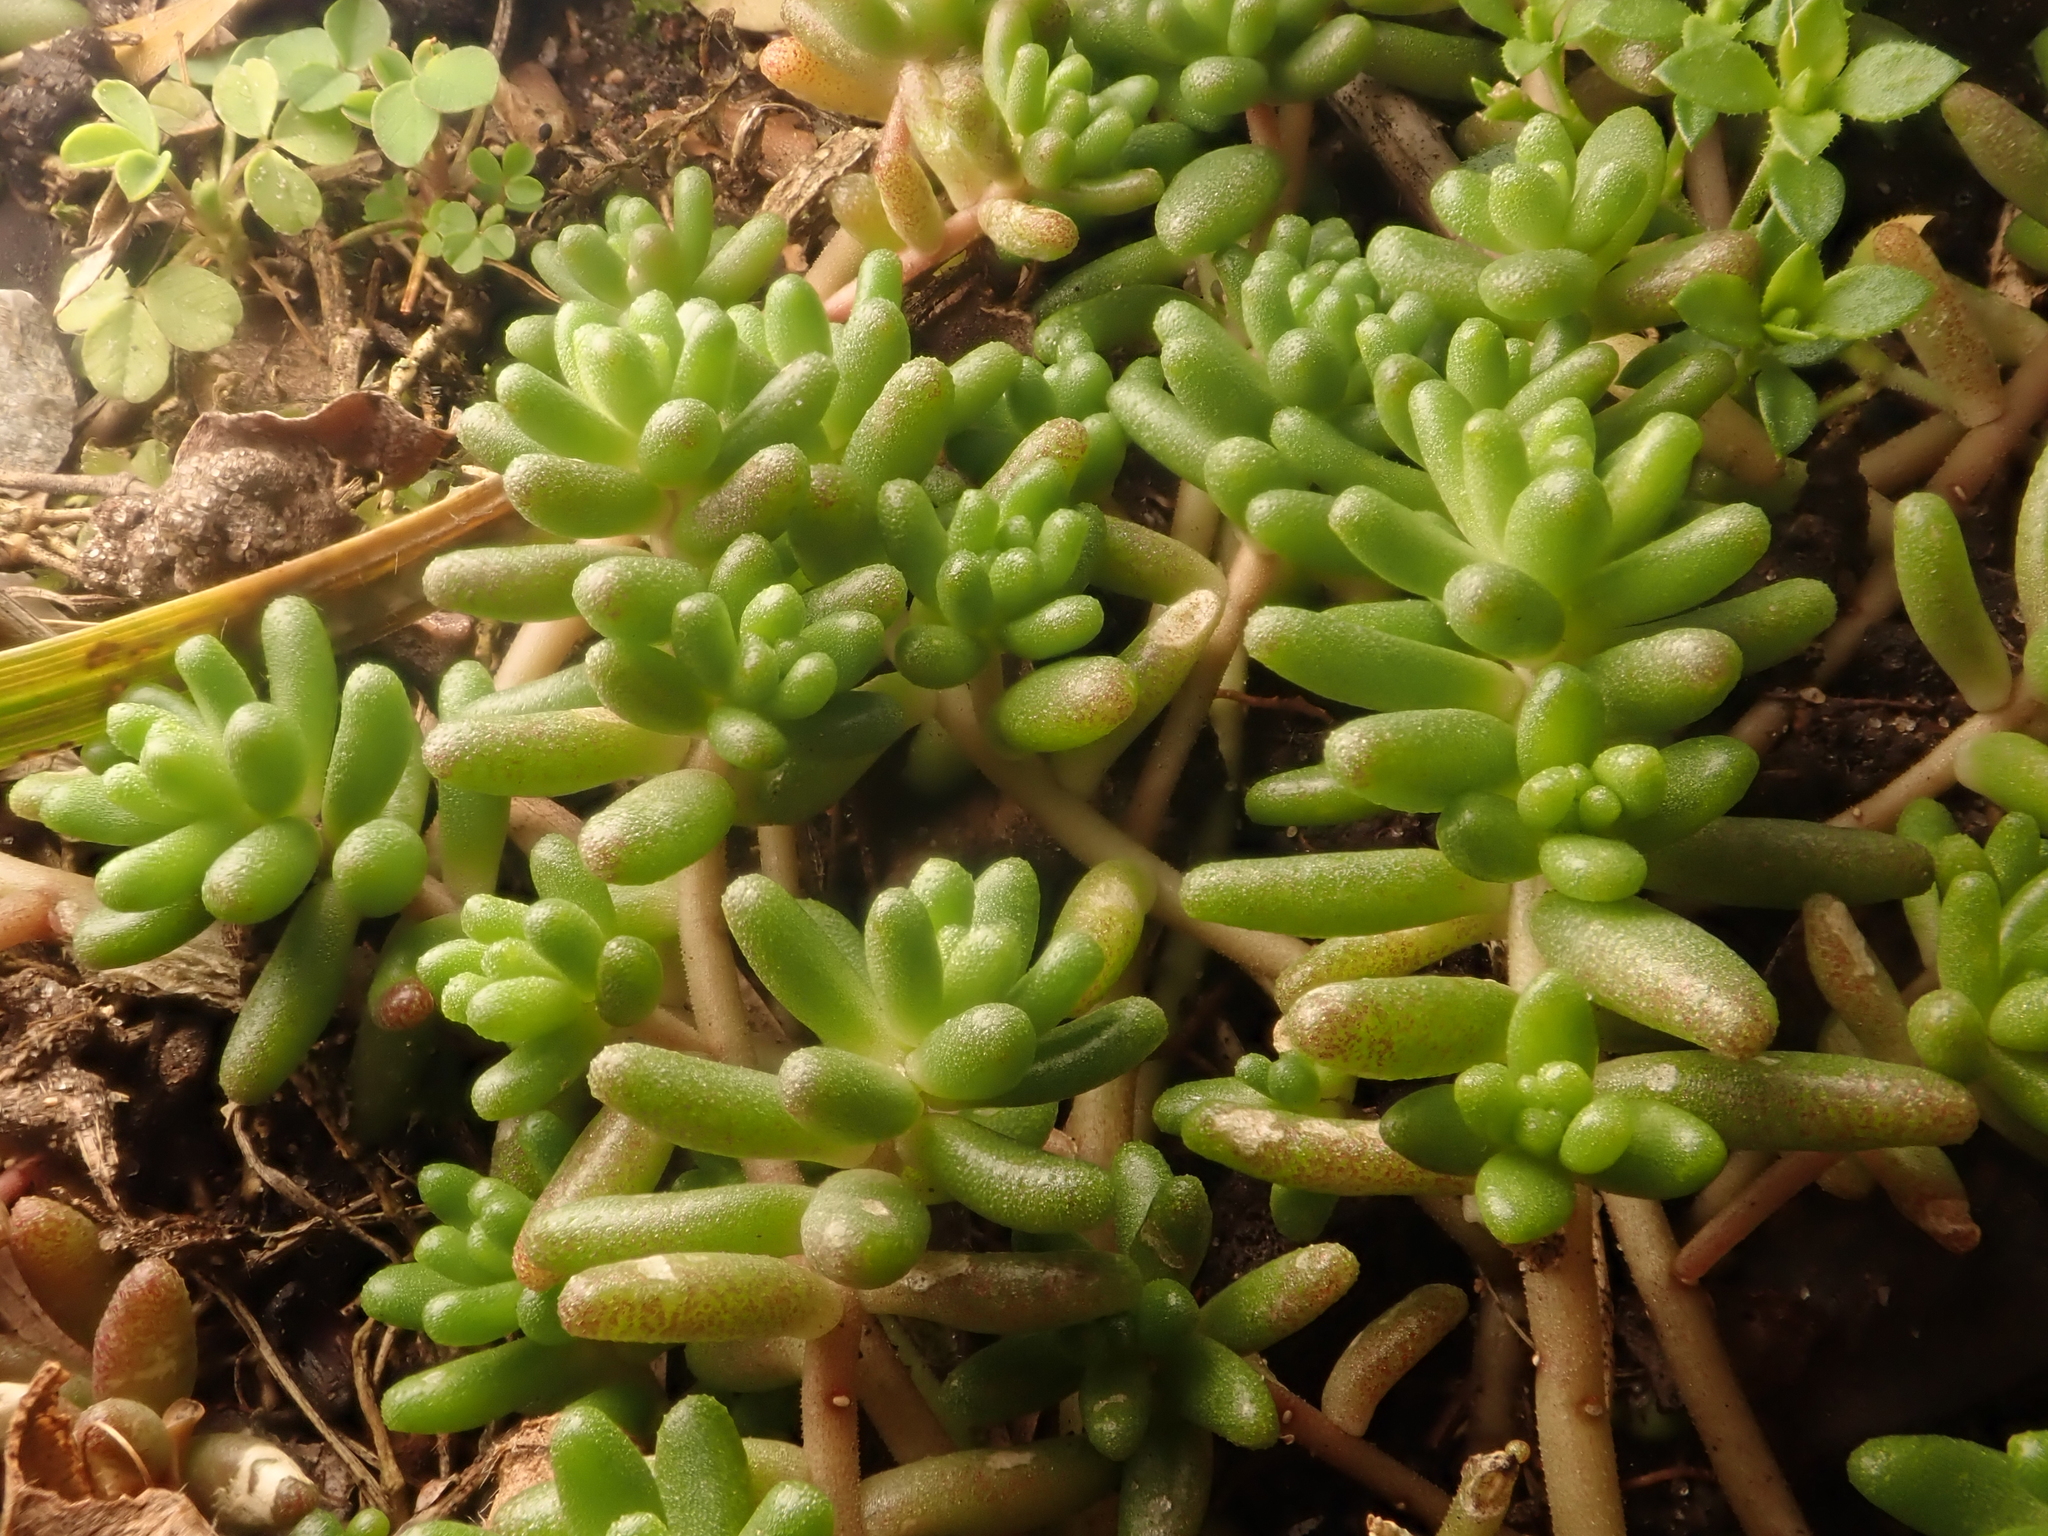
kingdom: Plantae
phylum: Tracheophyta
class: Magnoliopsida
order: Saxifragales
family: Crassulaceae
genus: Sedum
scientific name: Sedum album
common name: White stonecrop
